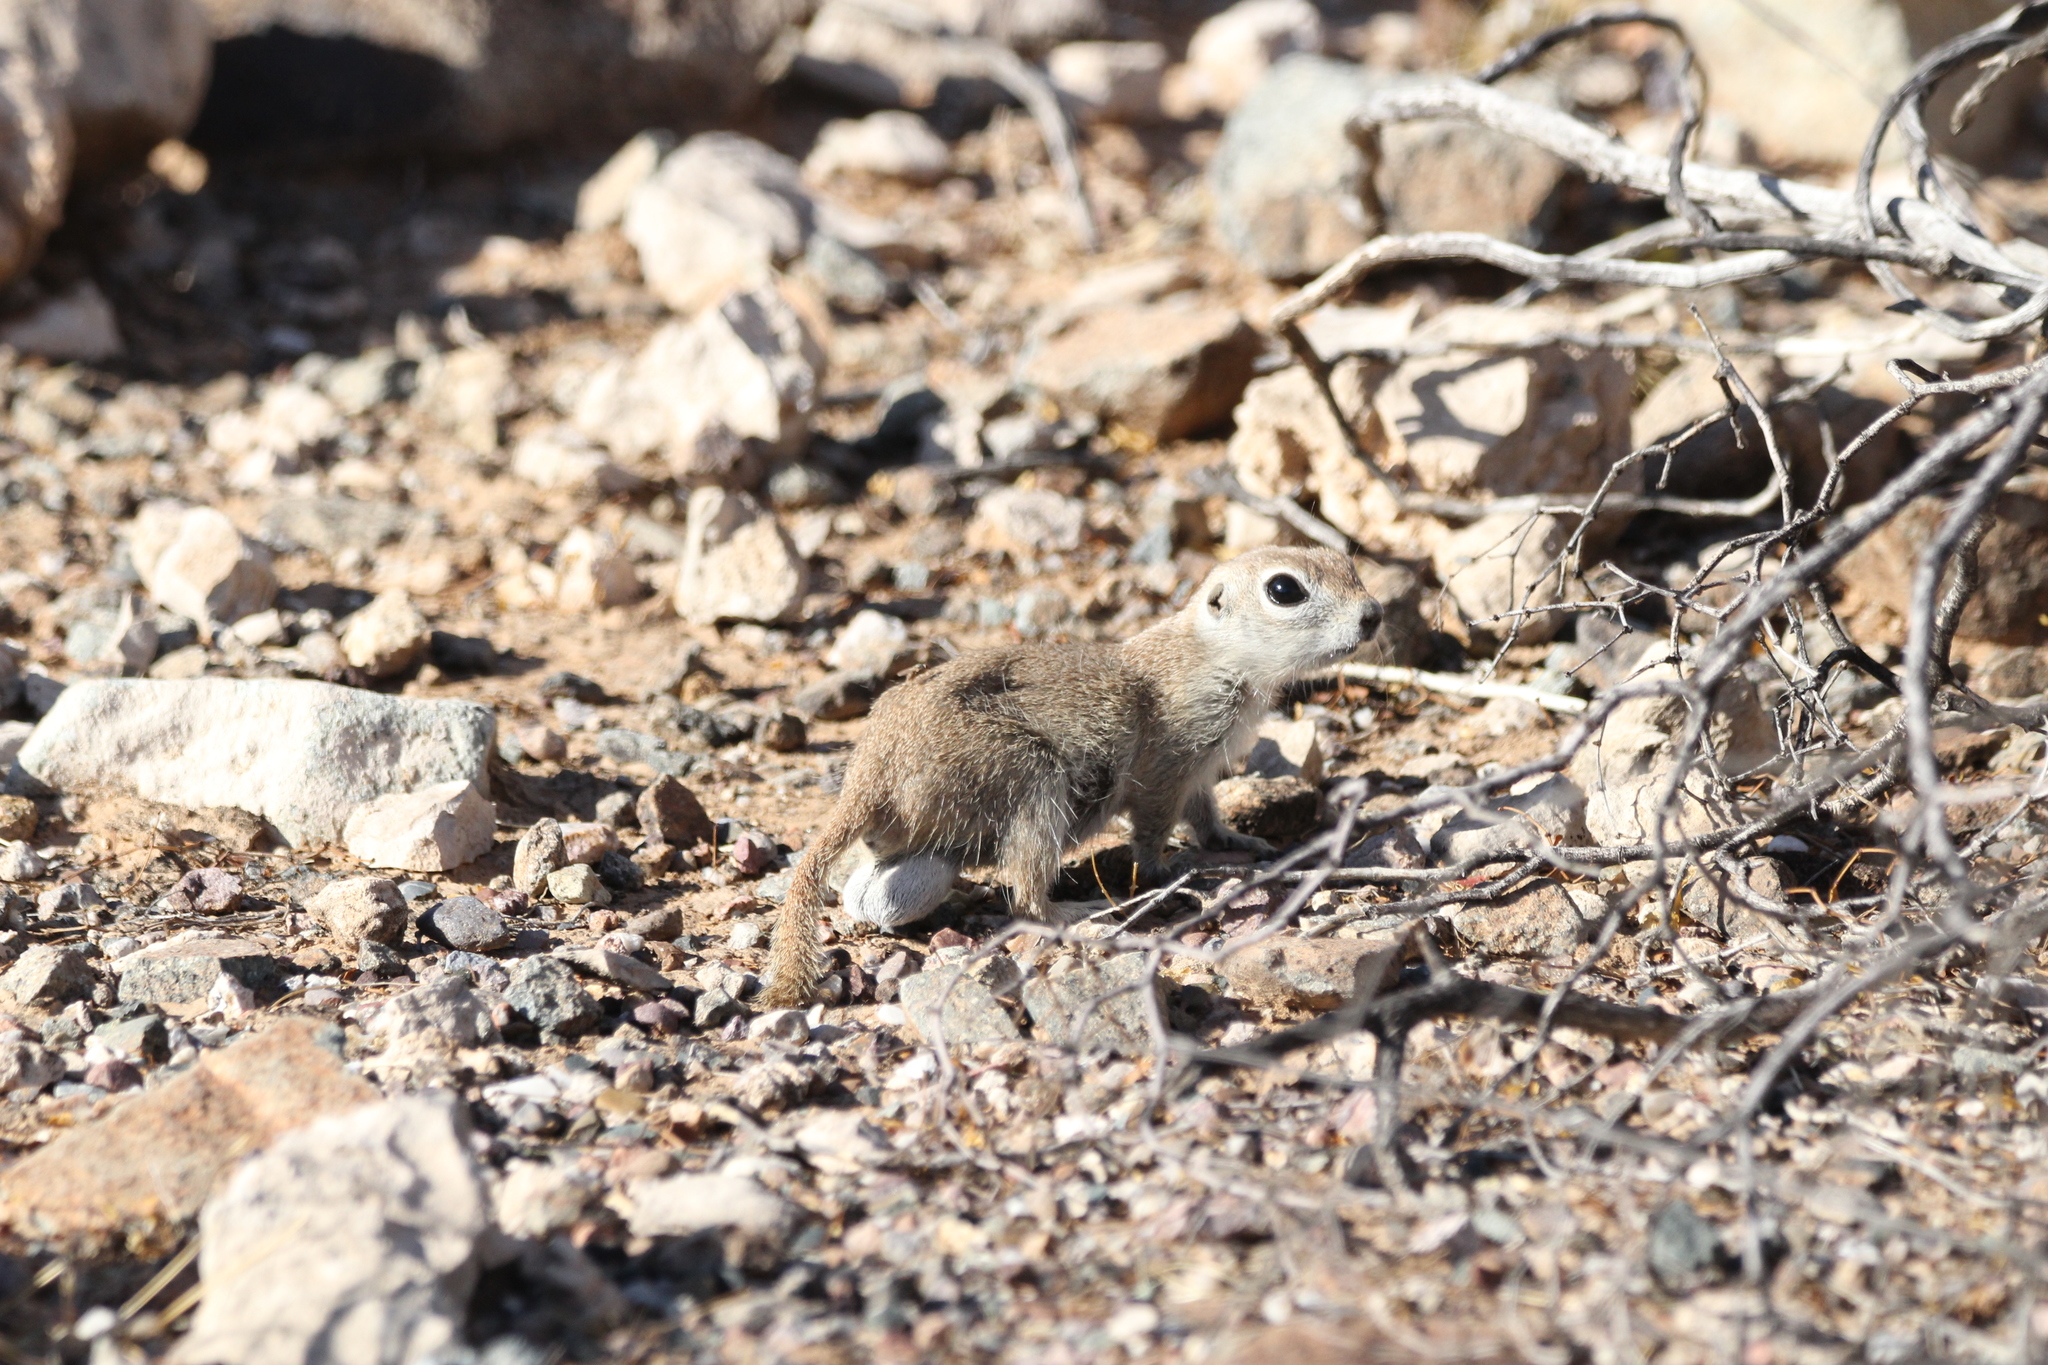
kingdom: Animalia
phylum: Chordata
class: Mammalia
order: Rodentia
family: Sciuridae
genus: Xerospermophilus
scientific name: Xerospermophilus tereticaudus
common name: Round-tailed ground squirrel
